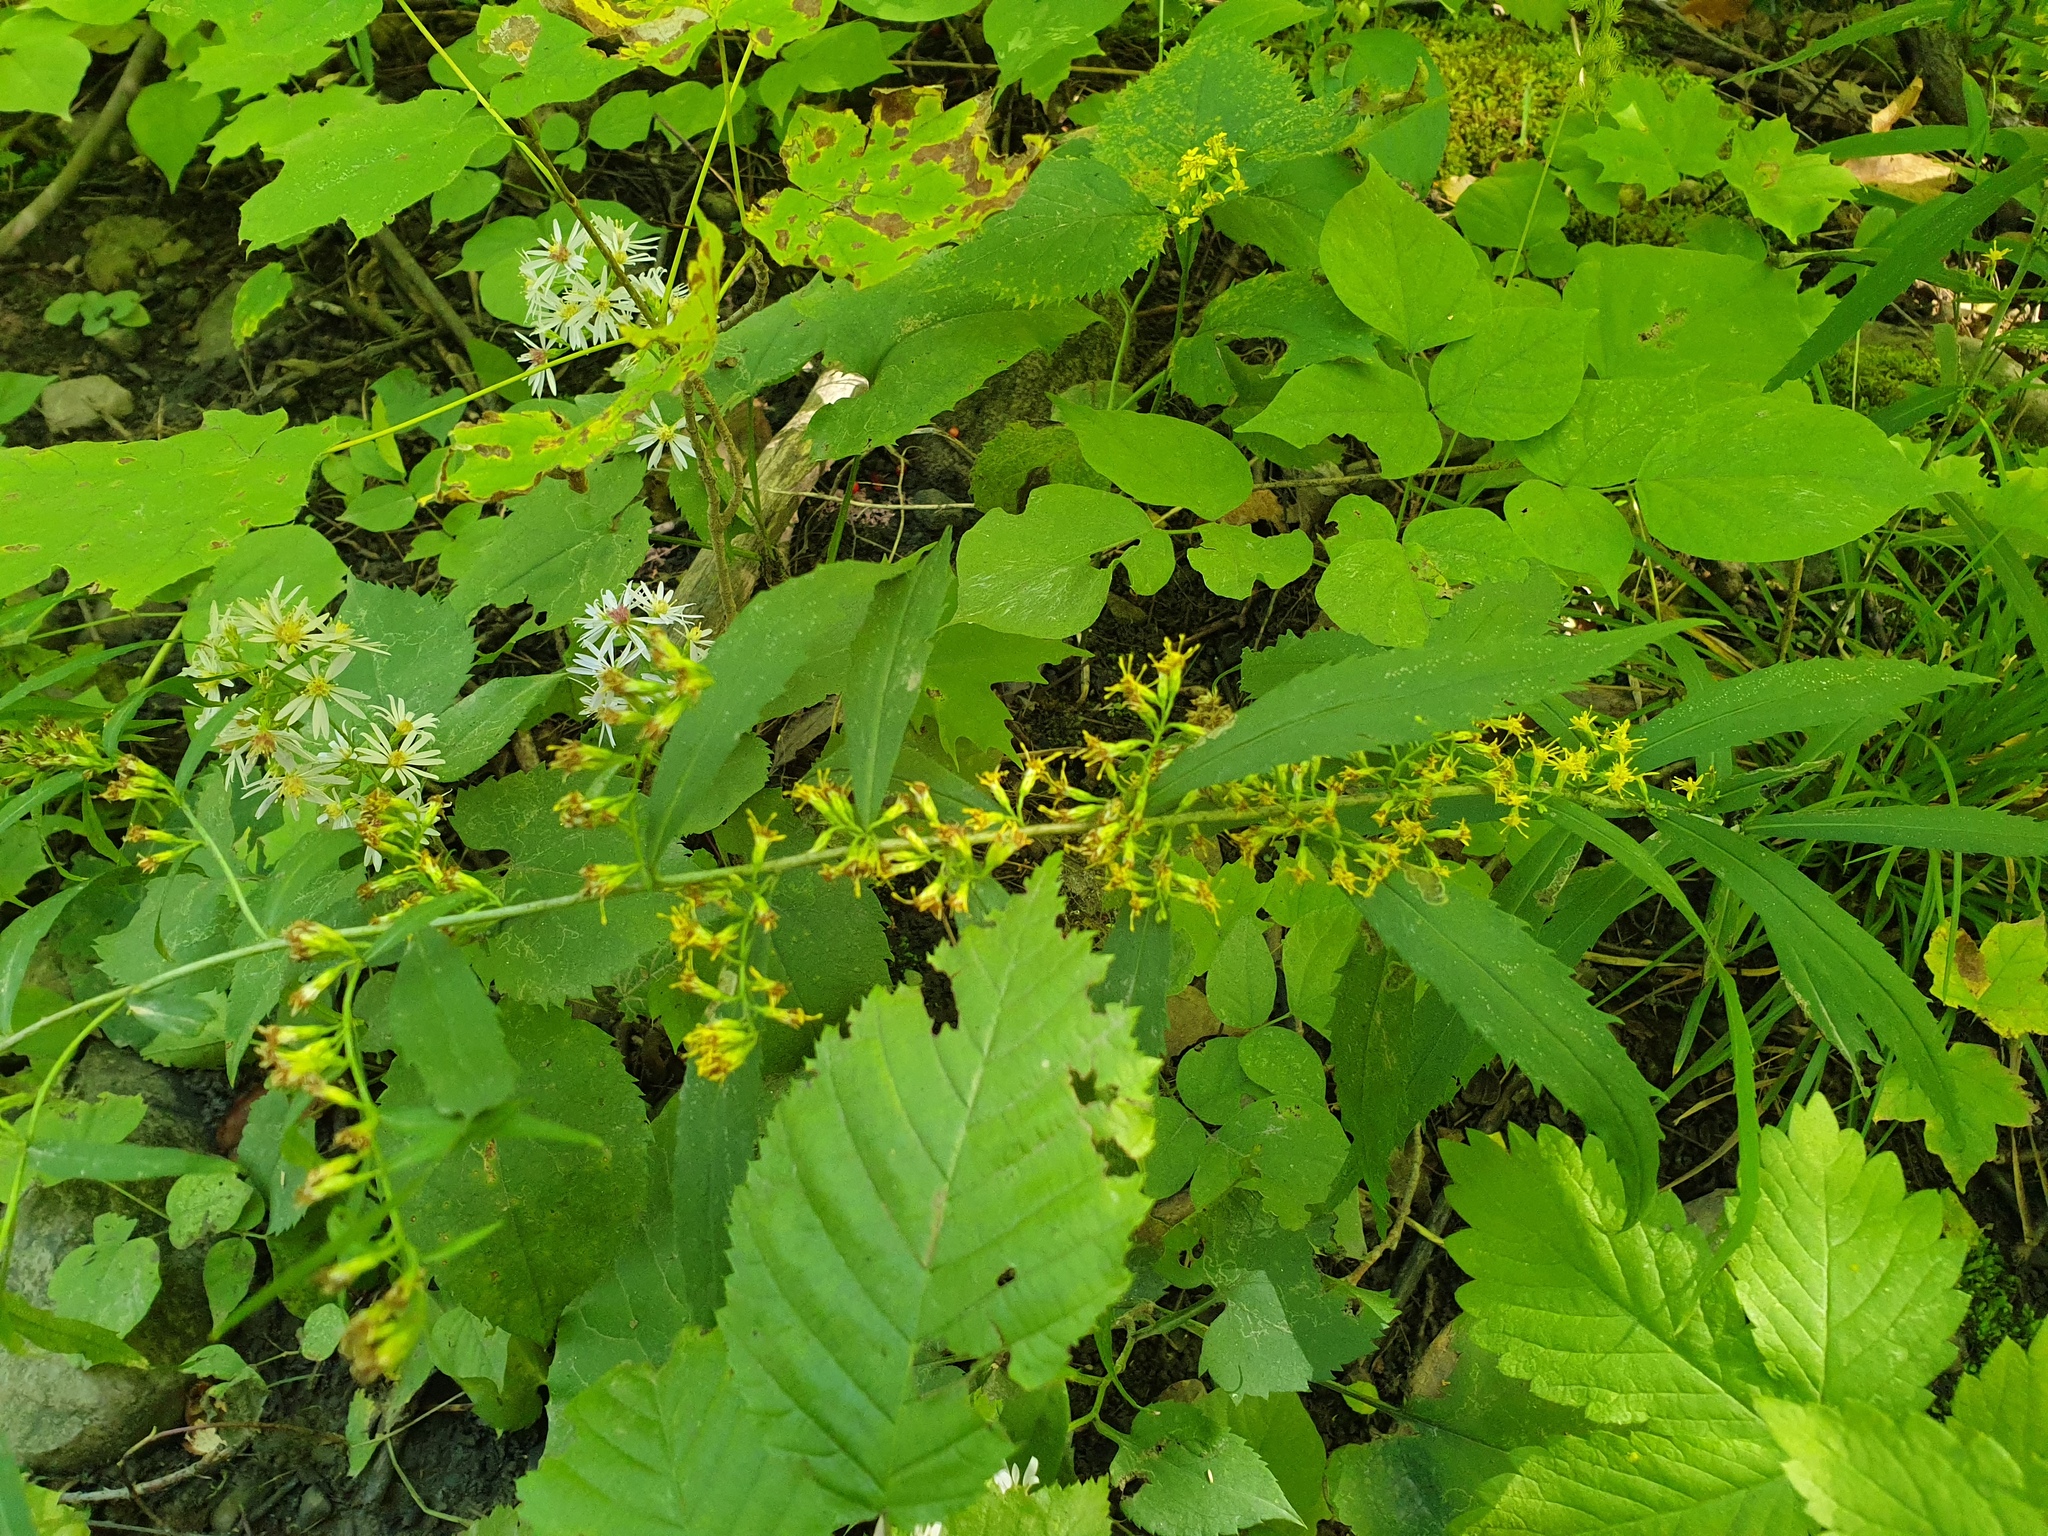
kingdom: Plantae
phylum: Tracheophyta
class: Magnoliopsida
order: Asterales
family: Asteraceae
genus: Solidago
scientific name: Solidago caesia
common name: Woodland goldenrod
